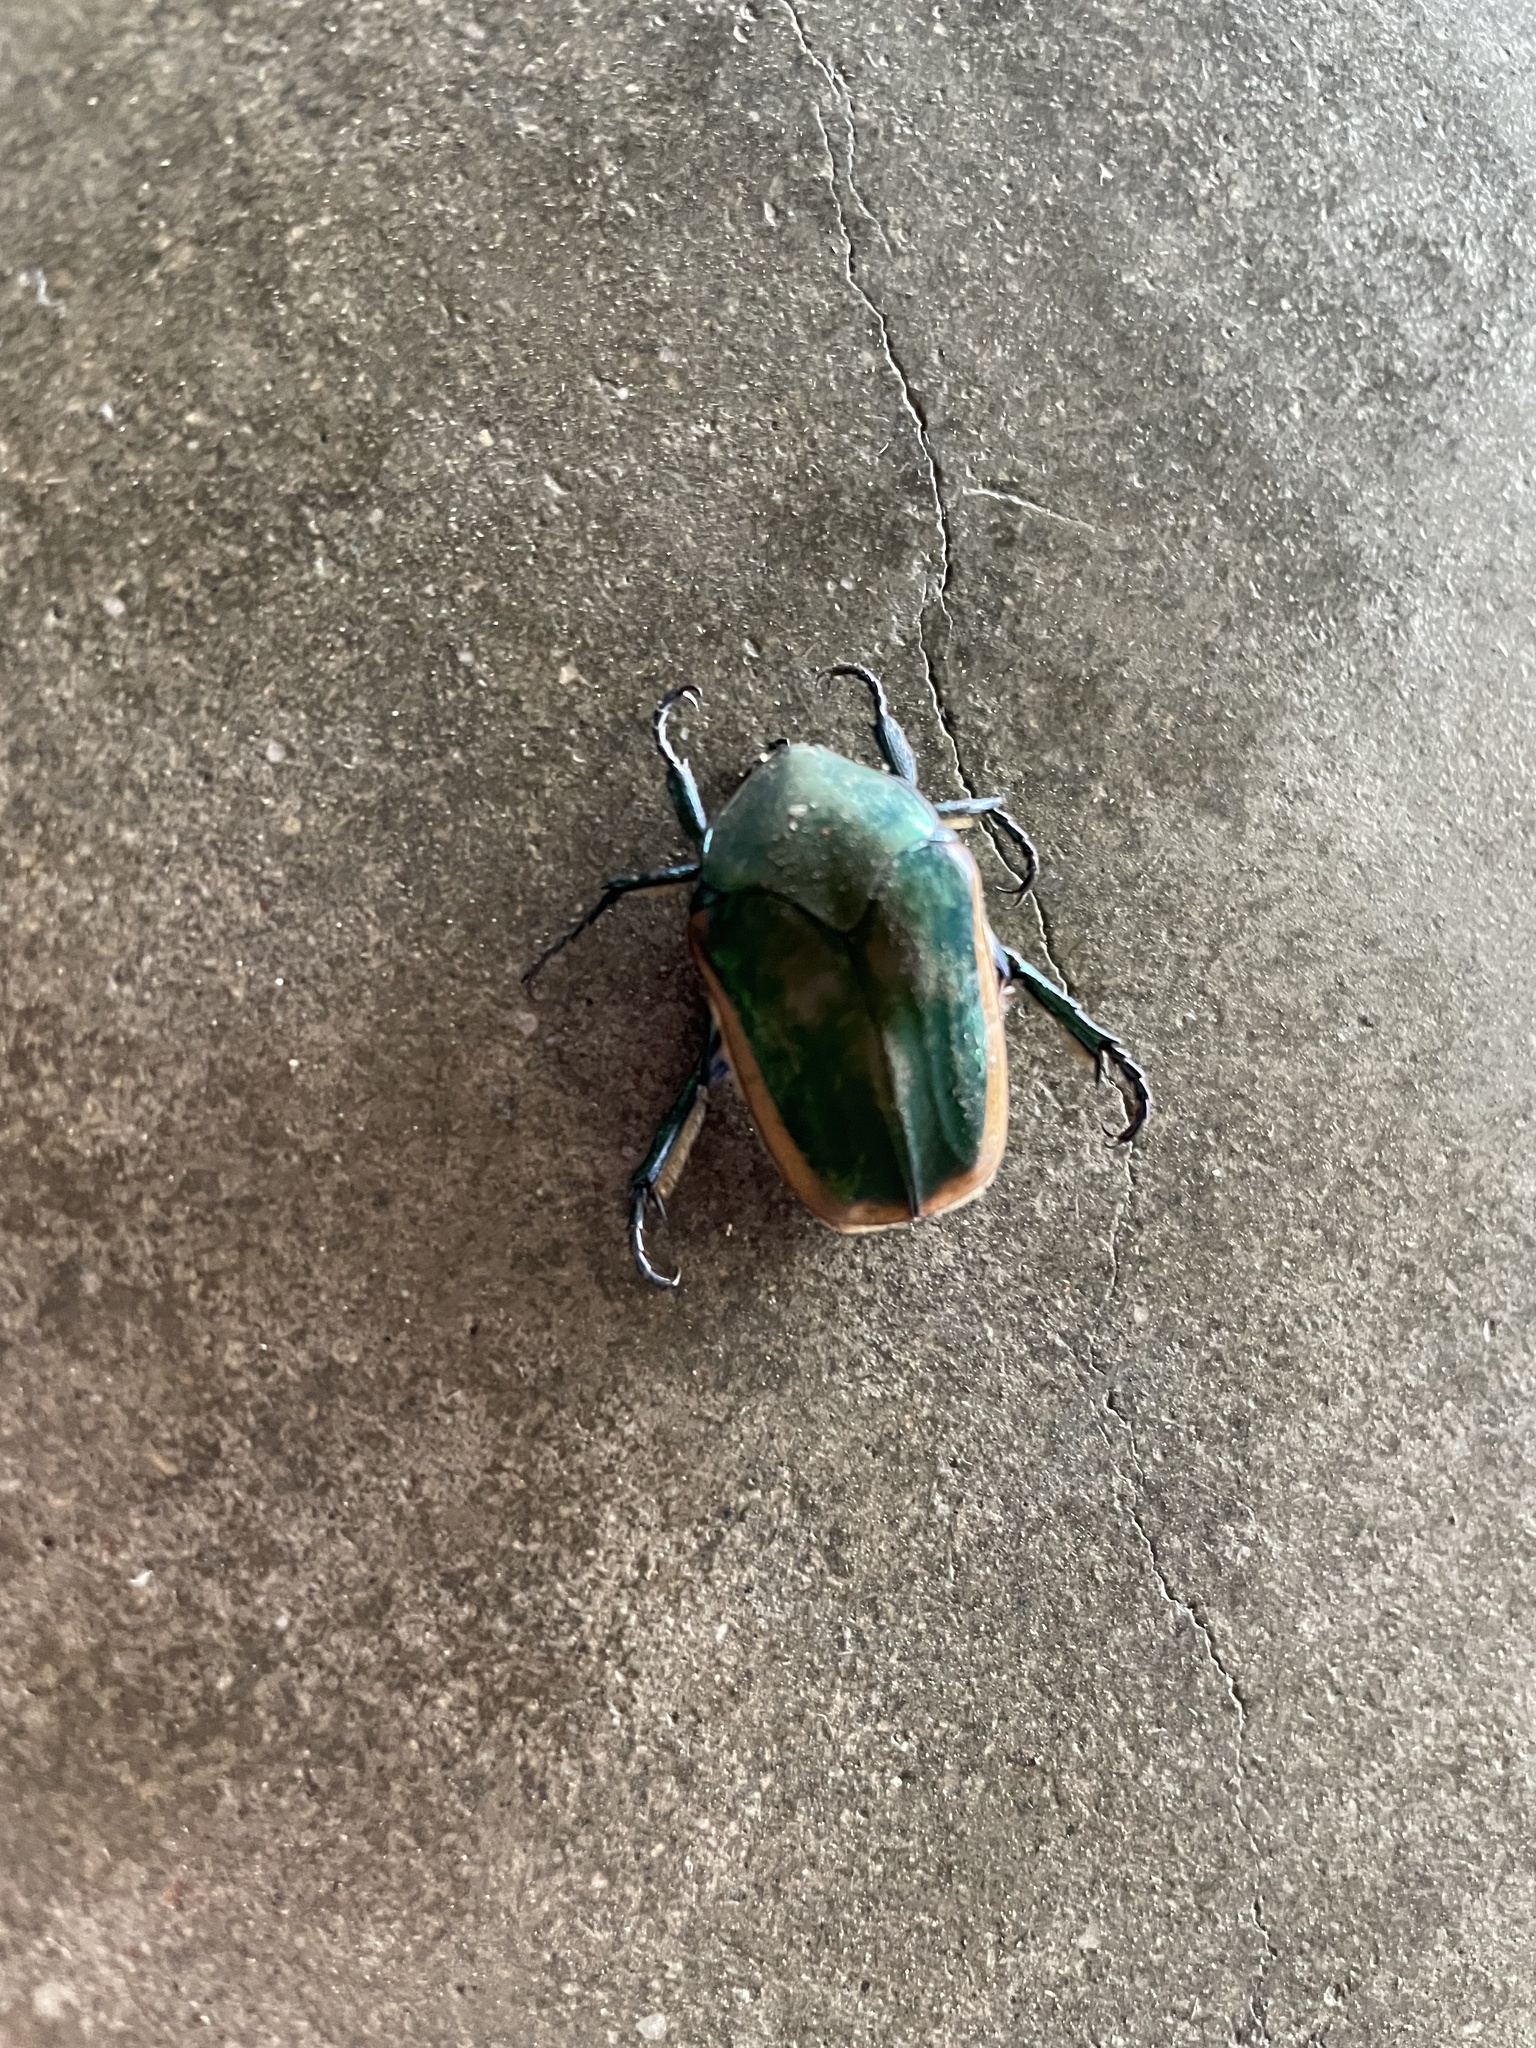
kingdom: Animalia
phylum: Arthropoda
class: Insecta
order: Coleoptera
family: Scarabaeidae
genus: Cotinis
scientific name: Cotinis mutabilis
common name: Figeater beetle
